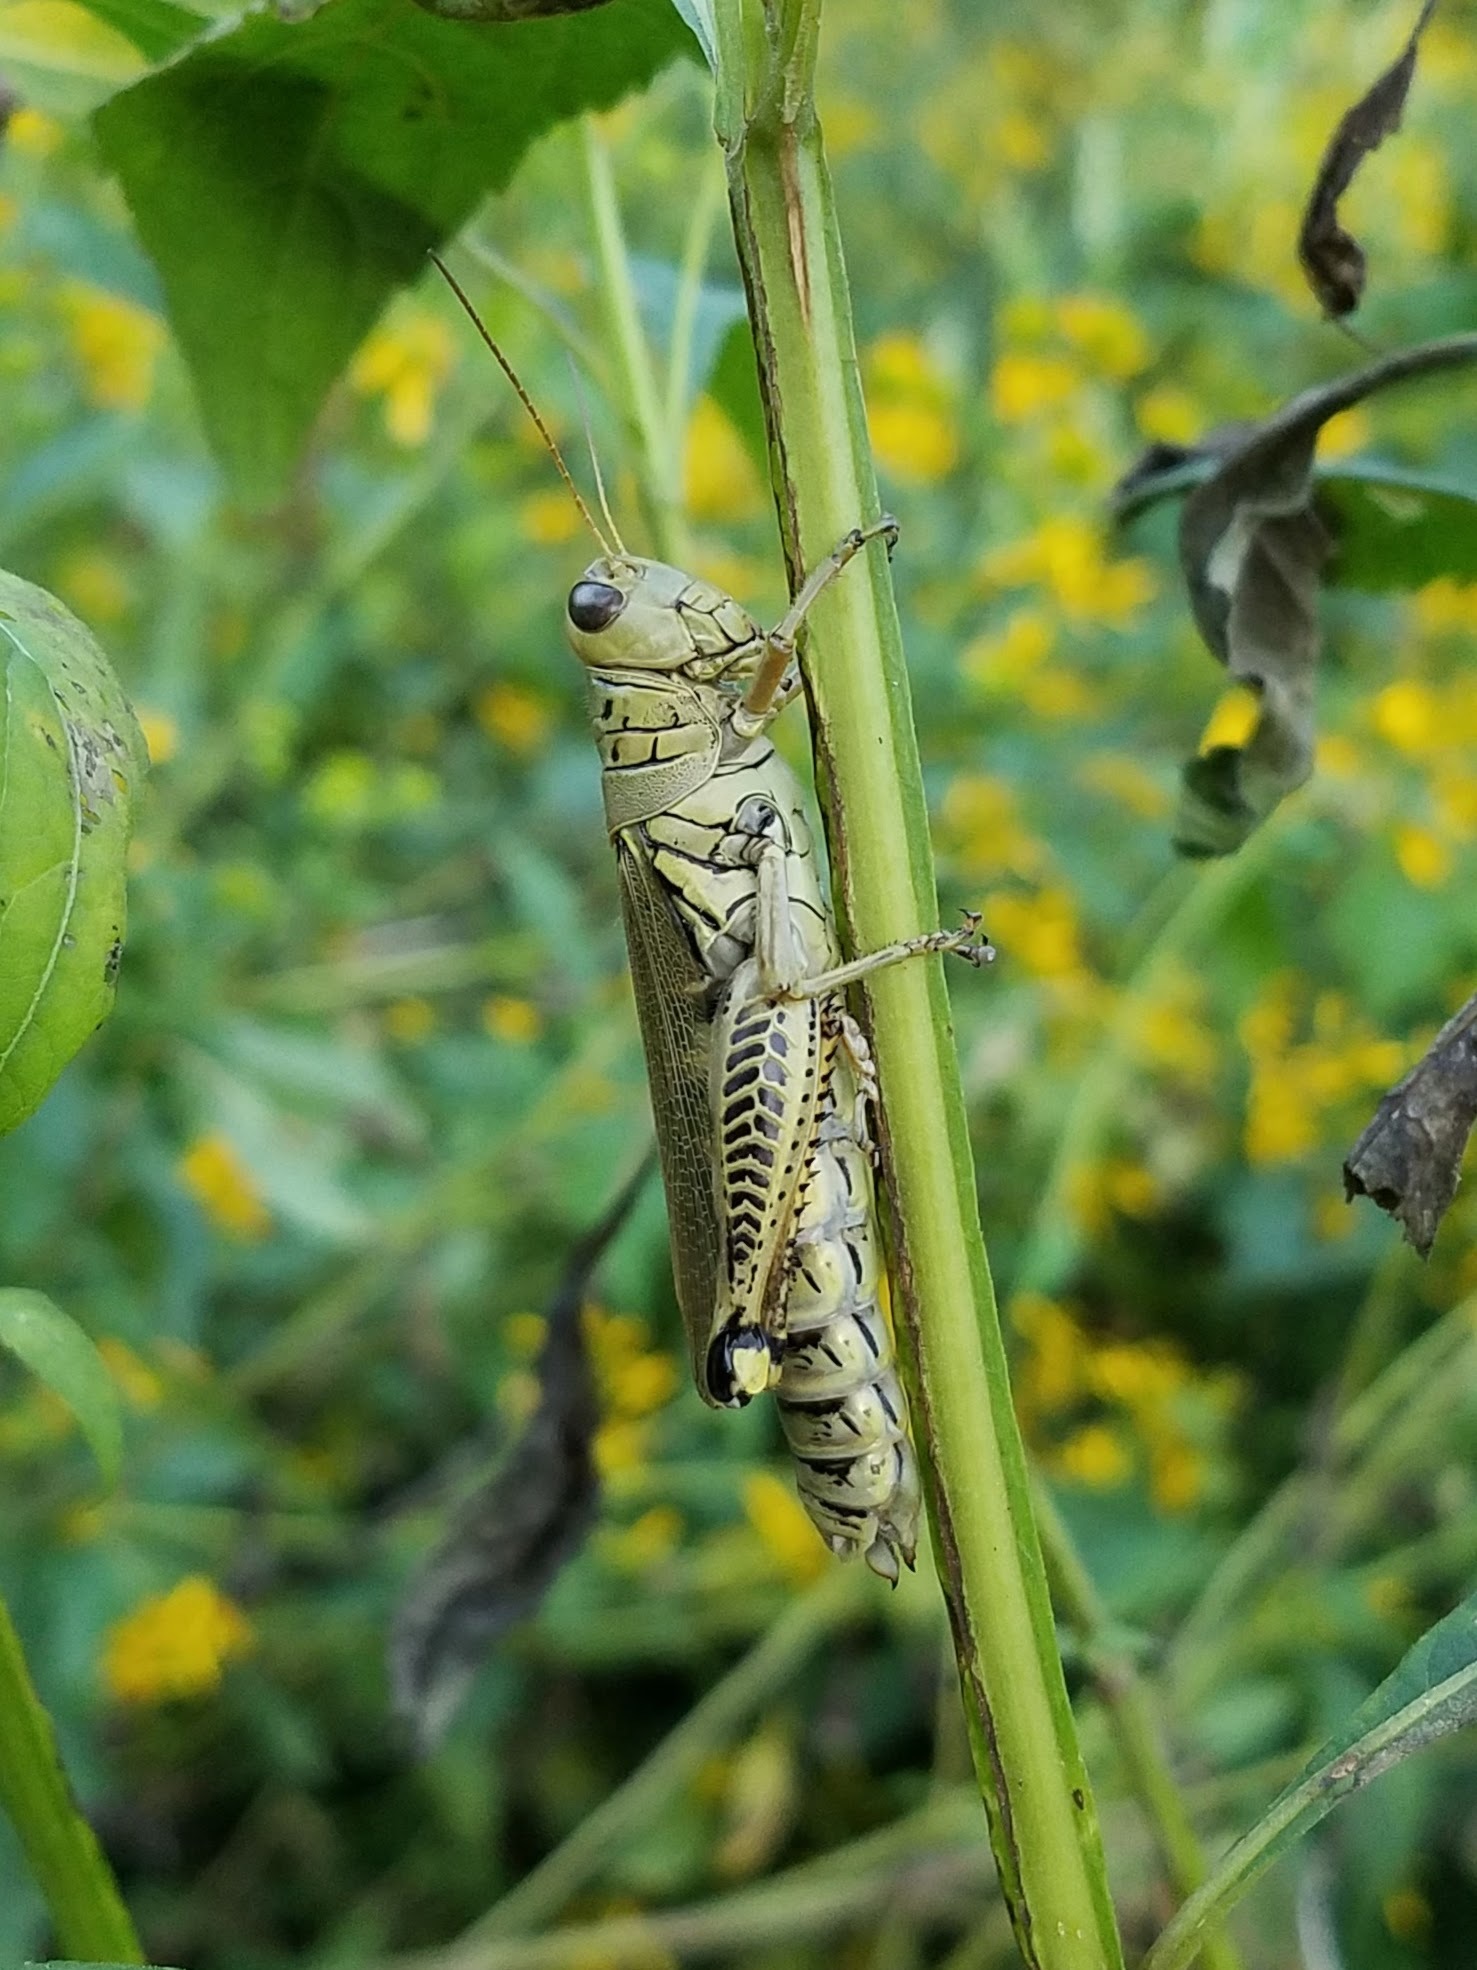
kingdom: Animalia
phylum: Arthropoda
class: Insecta
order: Orthoptera
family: Acrididae
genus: Melanoplus
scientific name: Melanoplus differentialis
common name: Differential grasshopper
